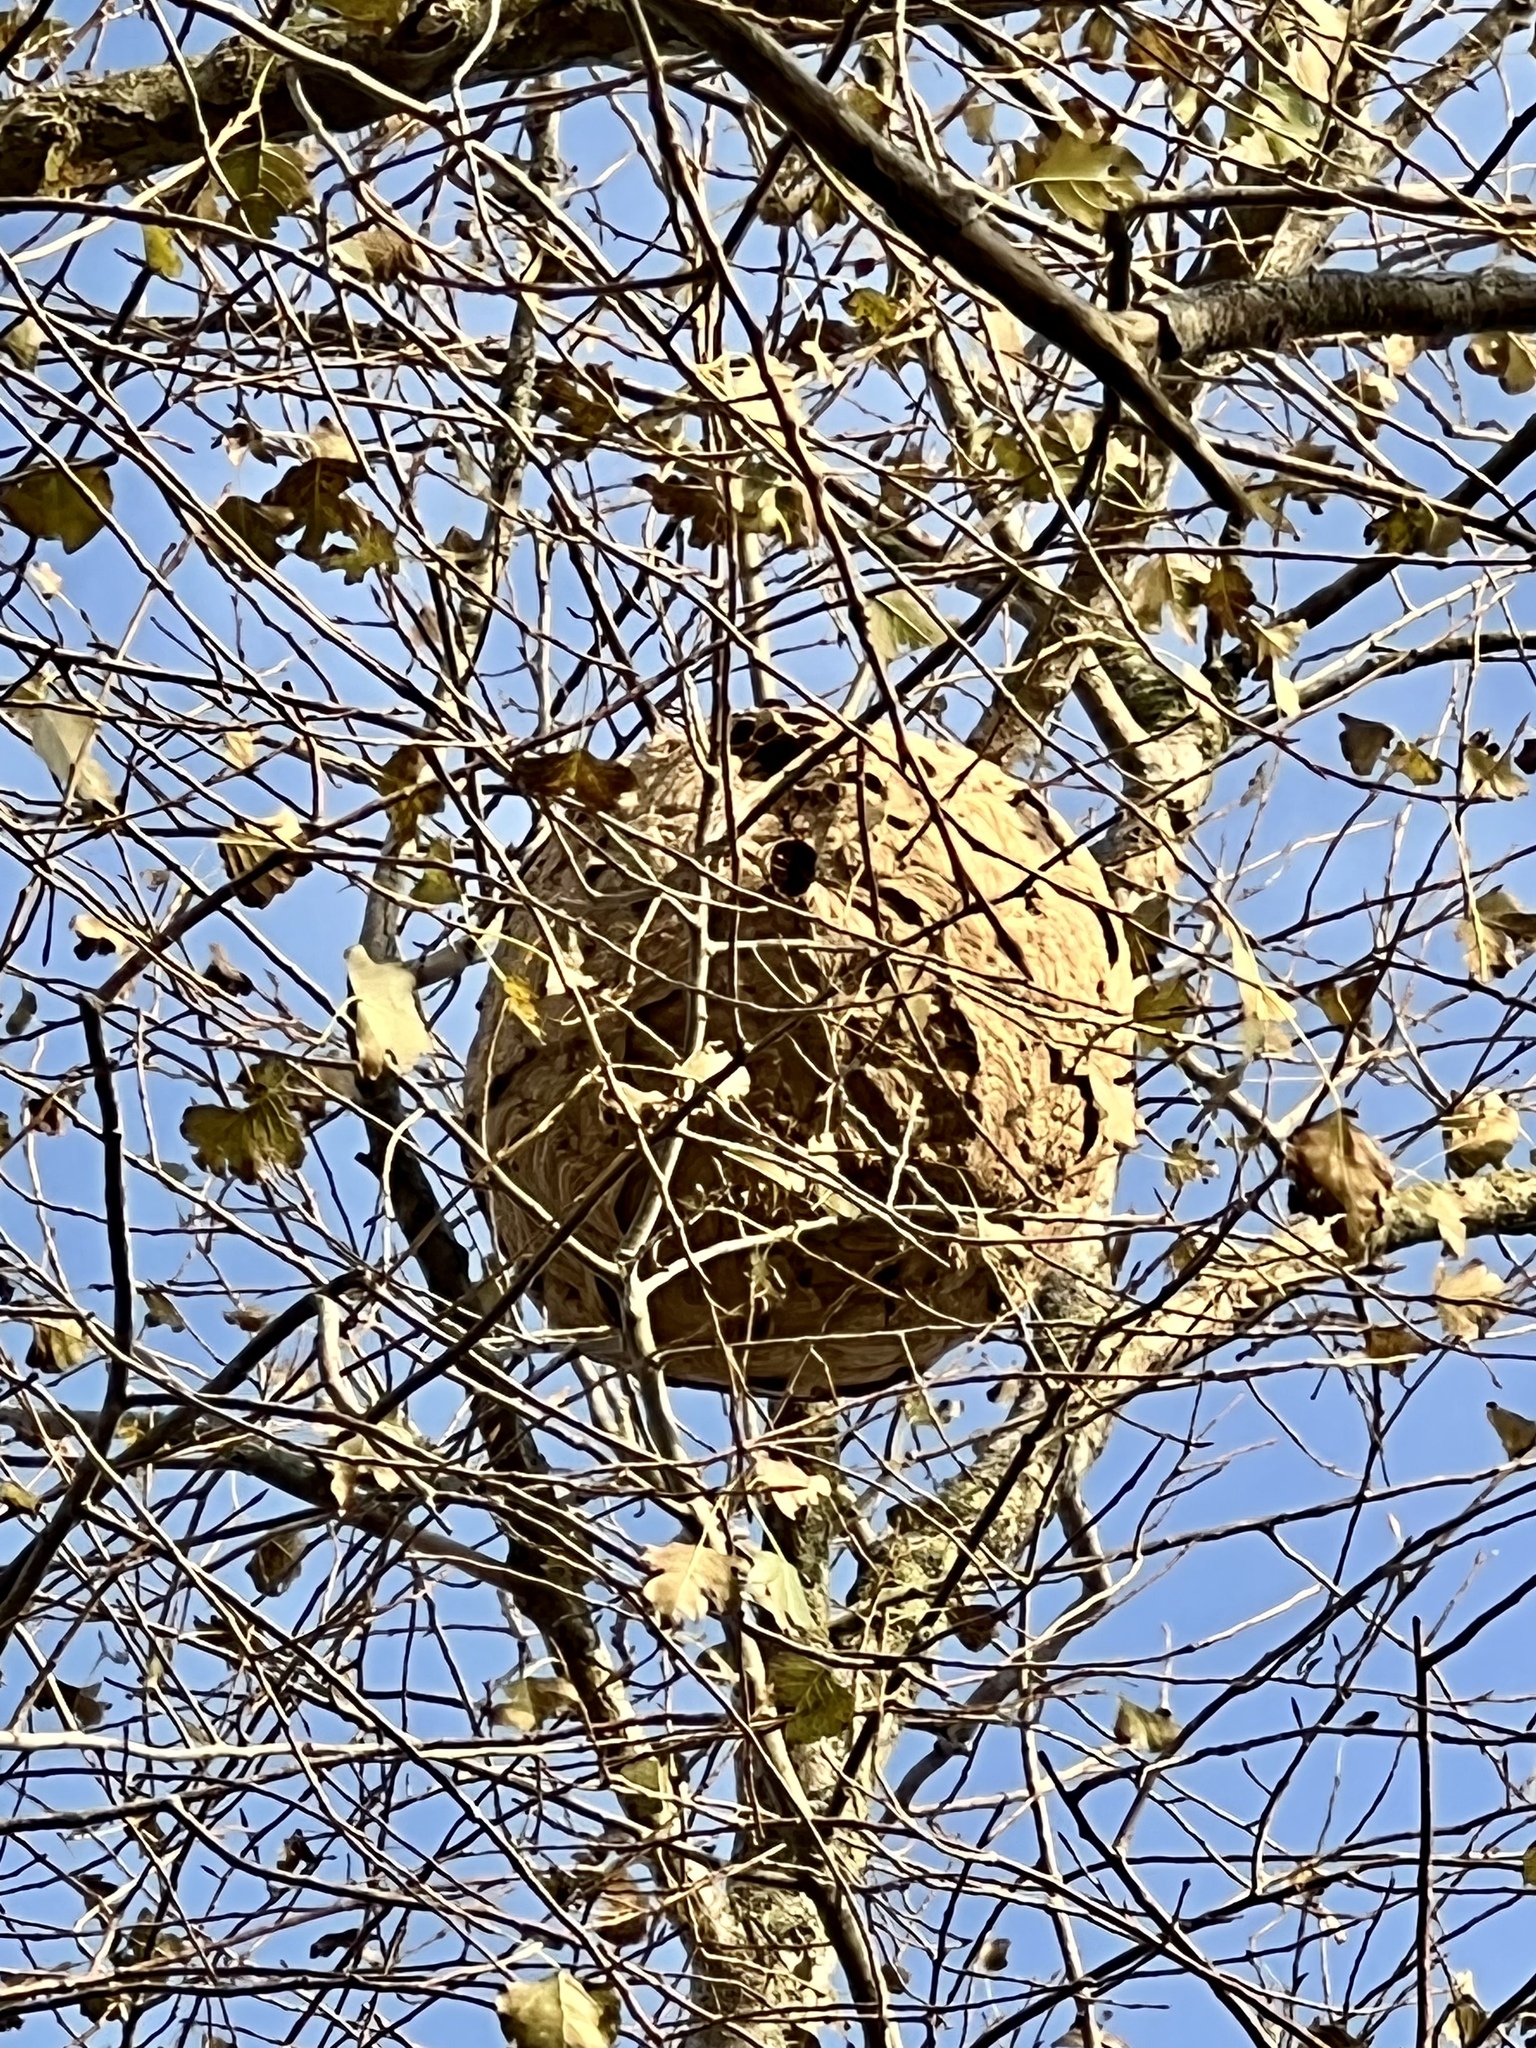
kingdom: Animalia
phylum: Arthropoda
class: Insecta
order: Hymenoptera
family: Vespidae
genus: Vespa
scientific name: Vespa velutina
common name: Asian hornet
